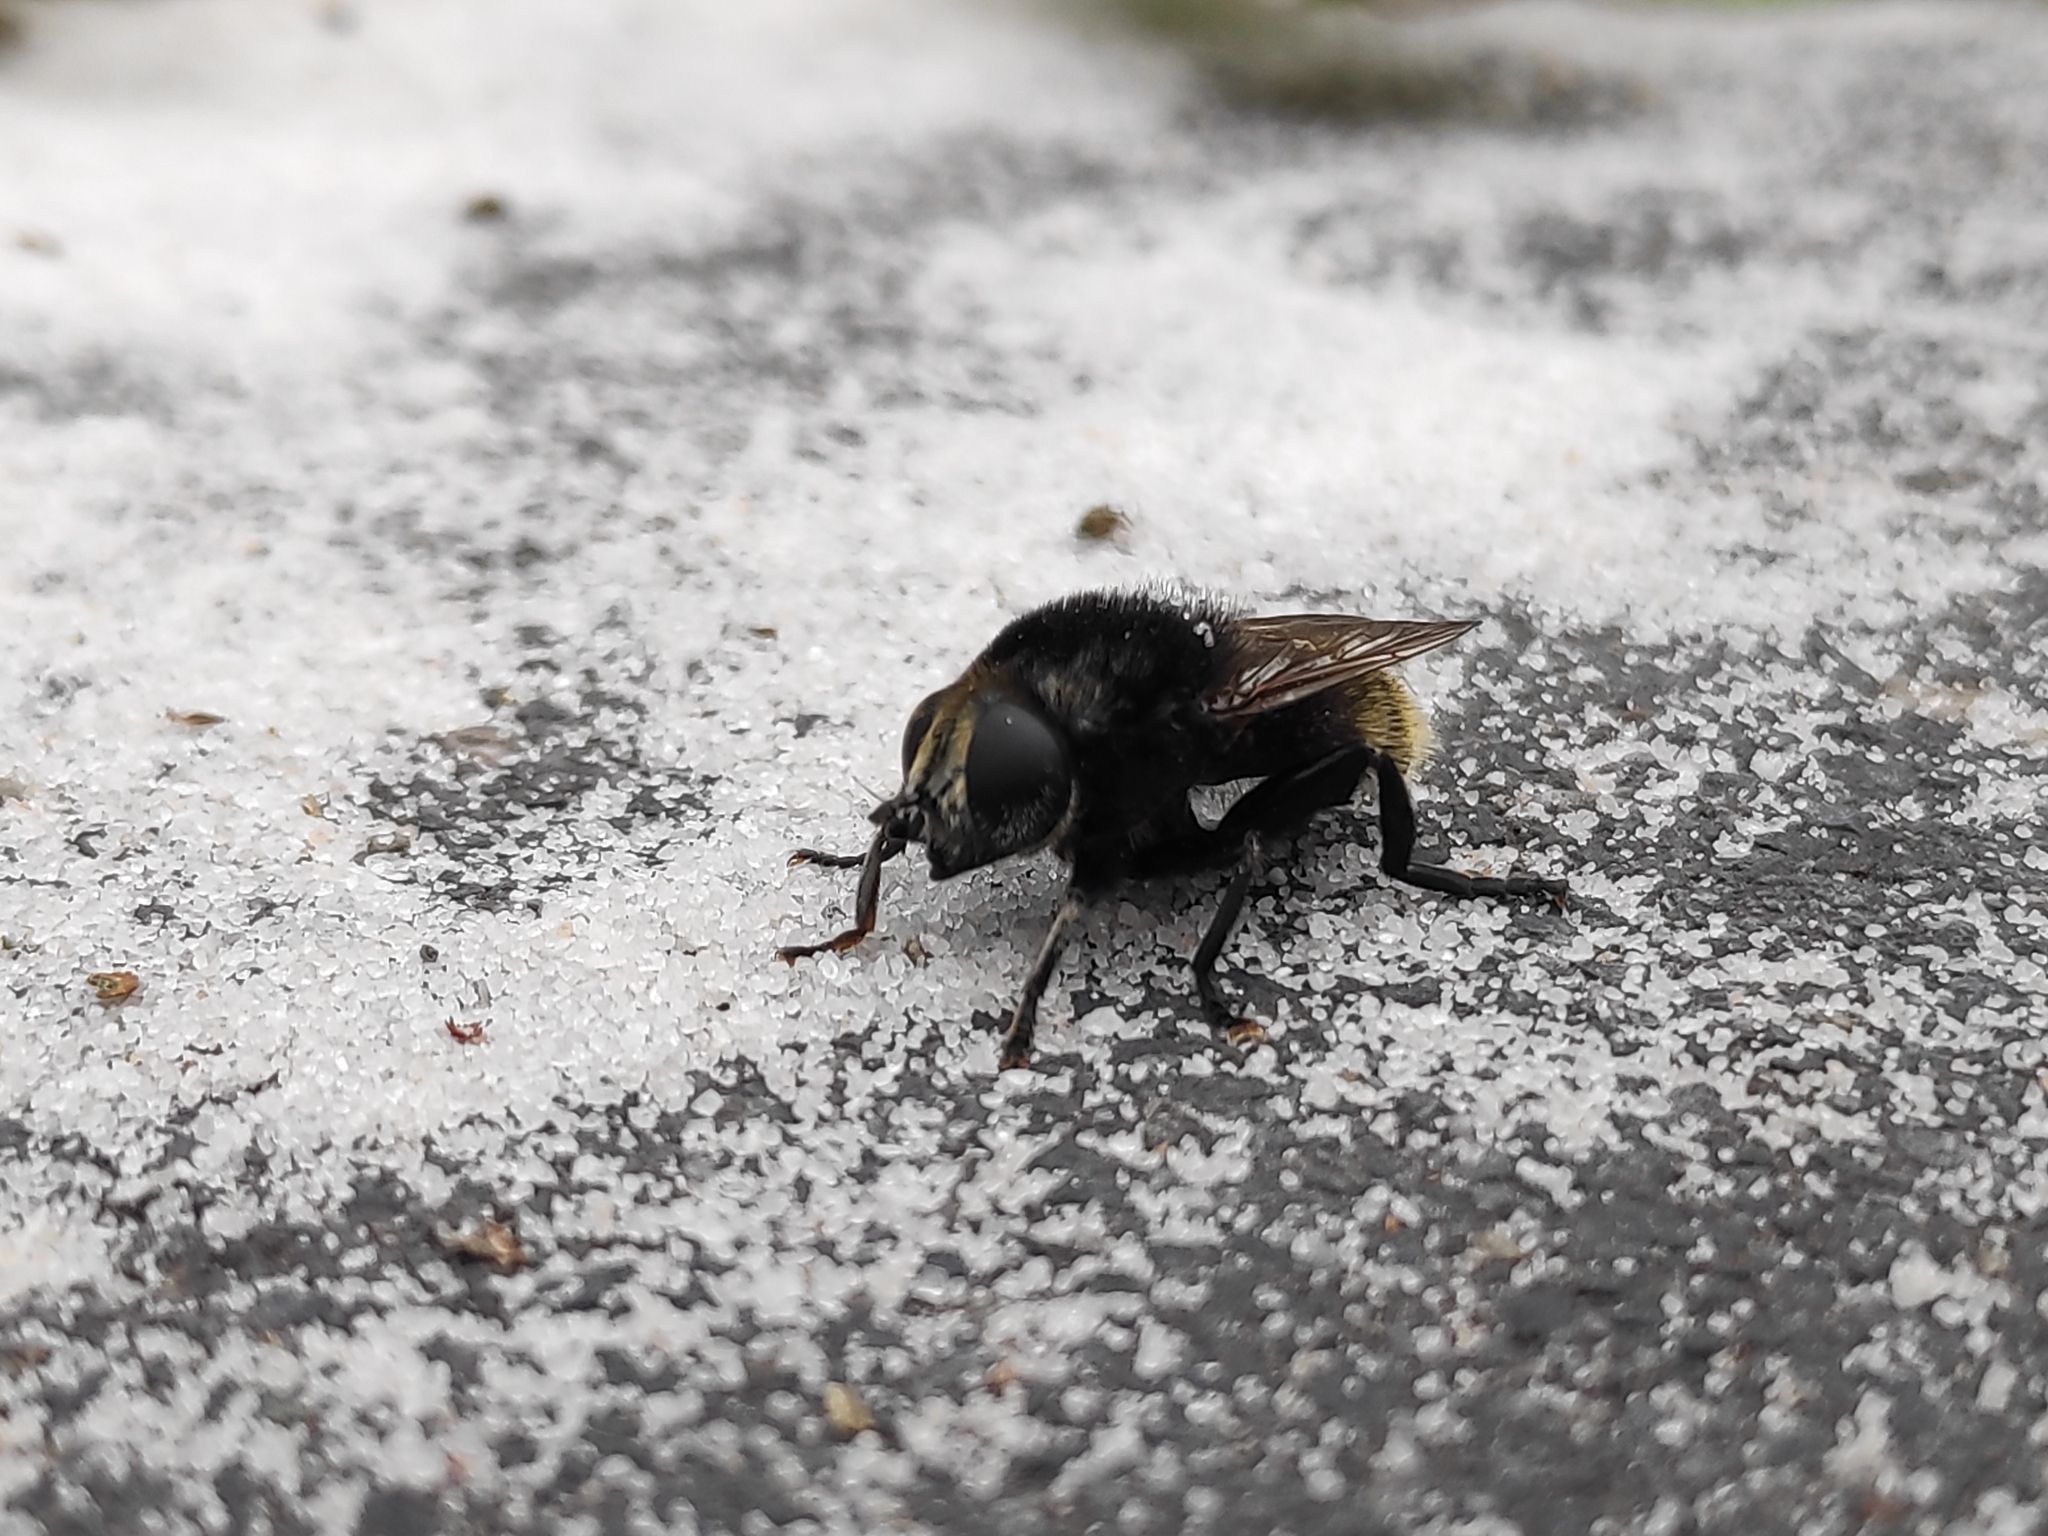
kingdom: Animalia
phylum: Arthropoda
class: Insecta
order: Diptera
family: Syrphidae
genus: Merodon
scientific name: Merodon equestris
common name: Greater bulb-fly
